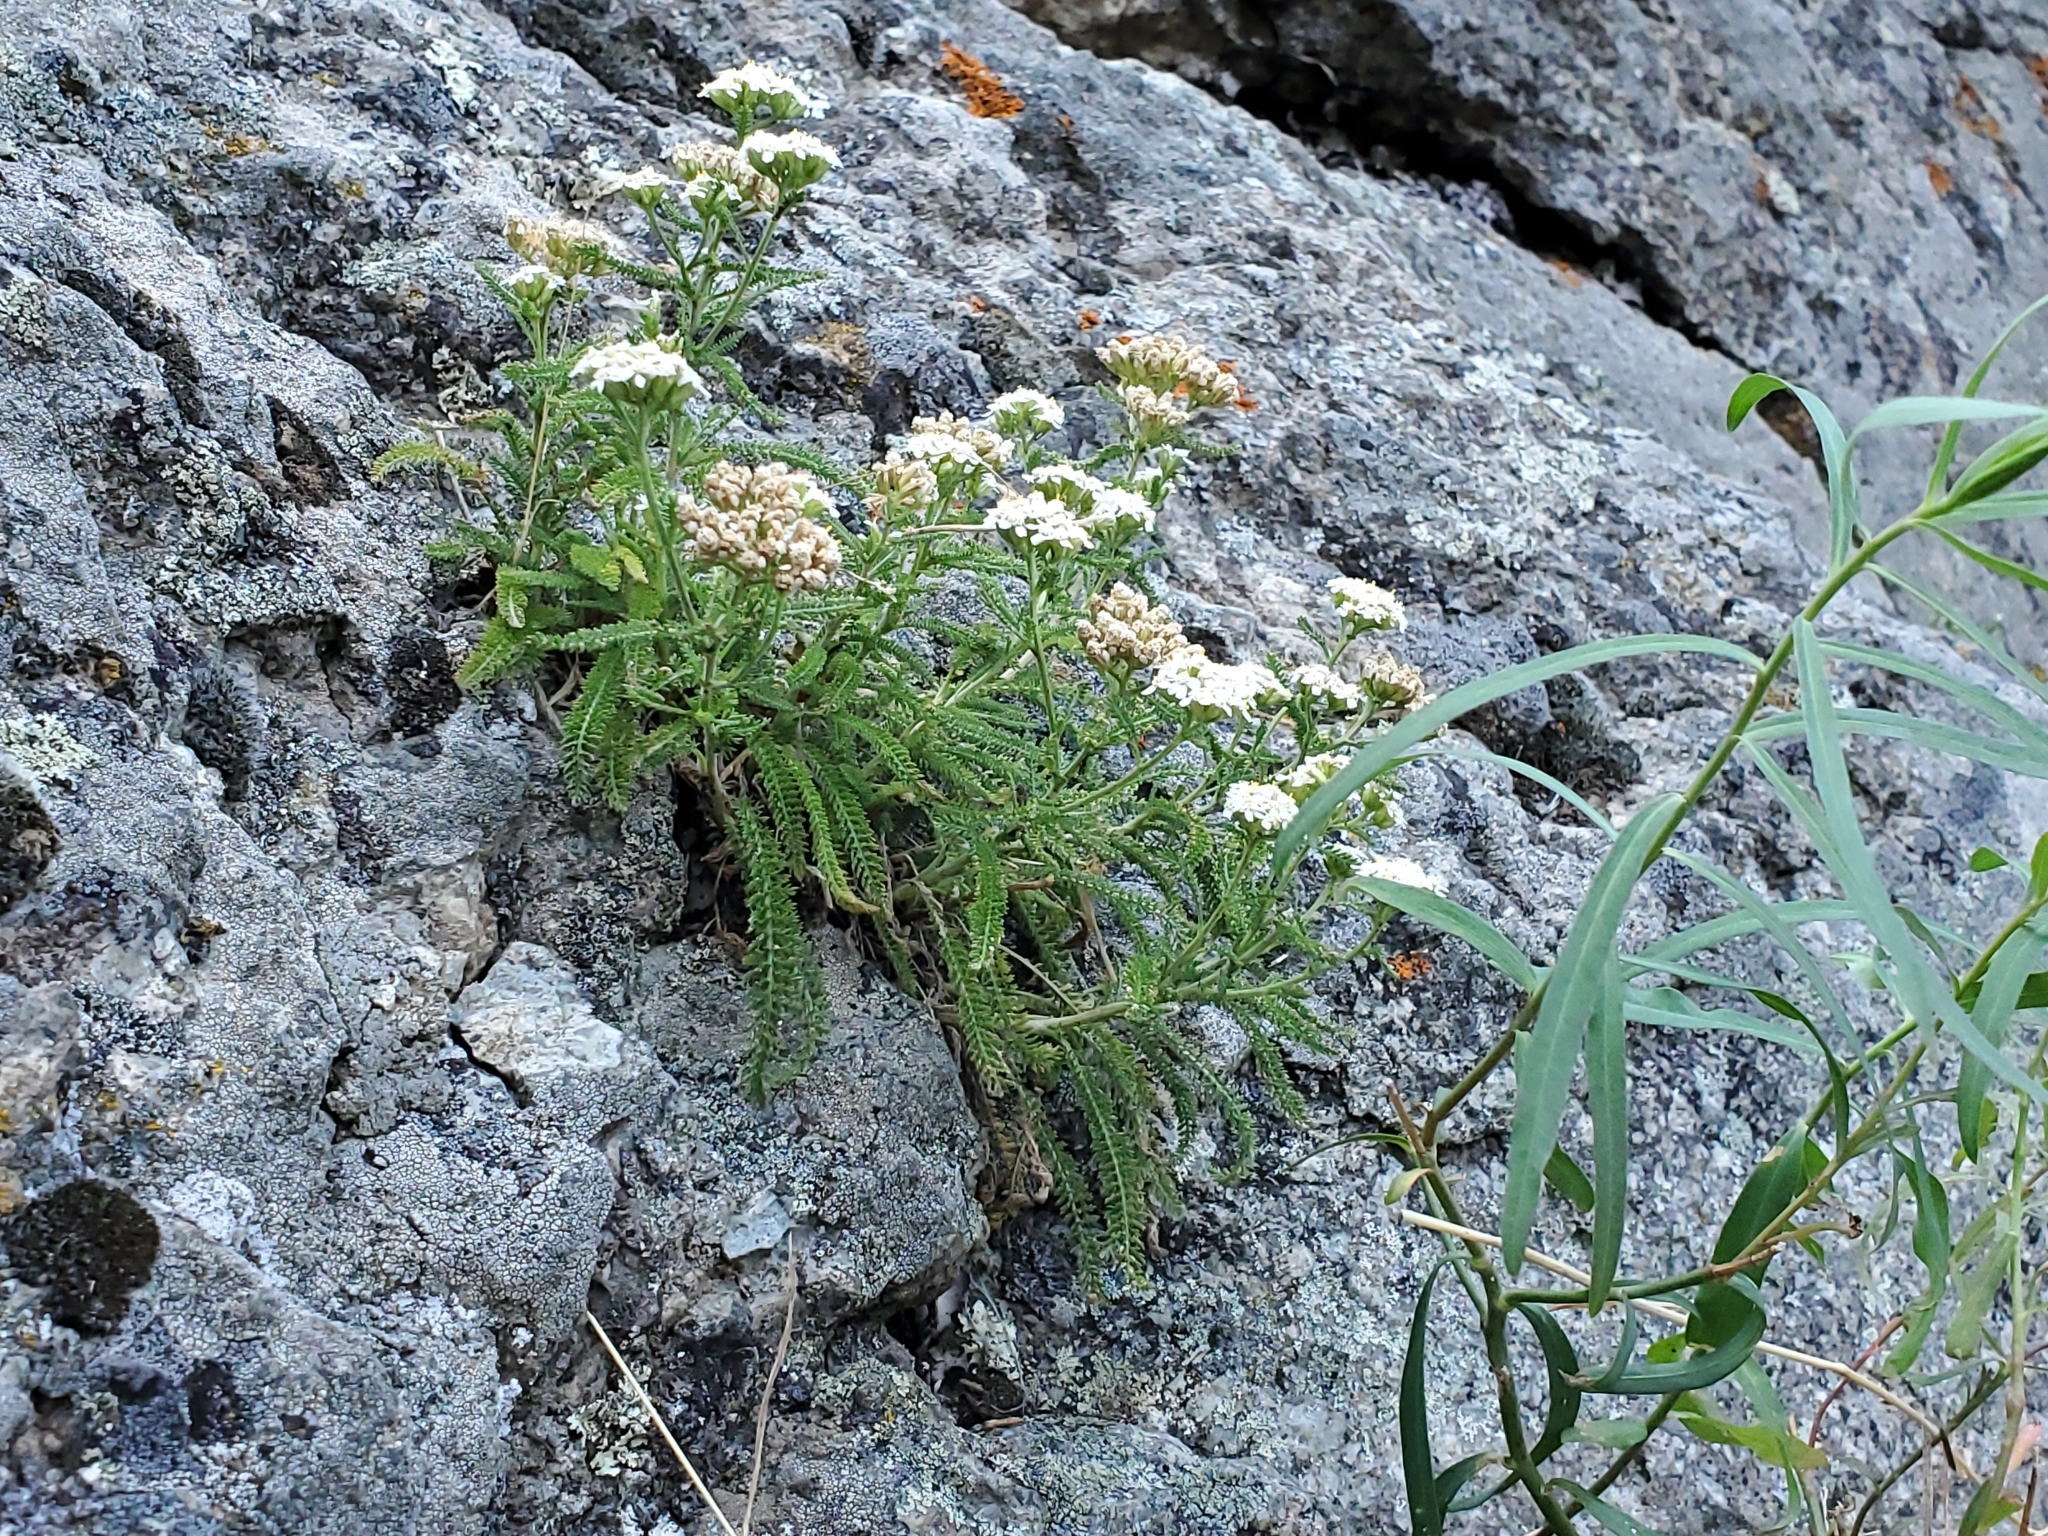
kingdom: Plantae
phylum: Tracheophyta
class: Magnoliopsida
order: Asterales
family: Asteraceae
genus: Achillea
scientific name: Achillea millefolium
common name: Yarrow
